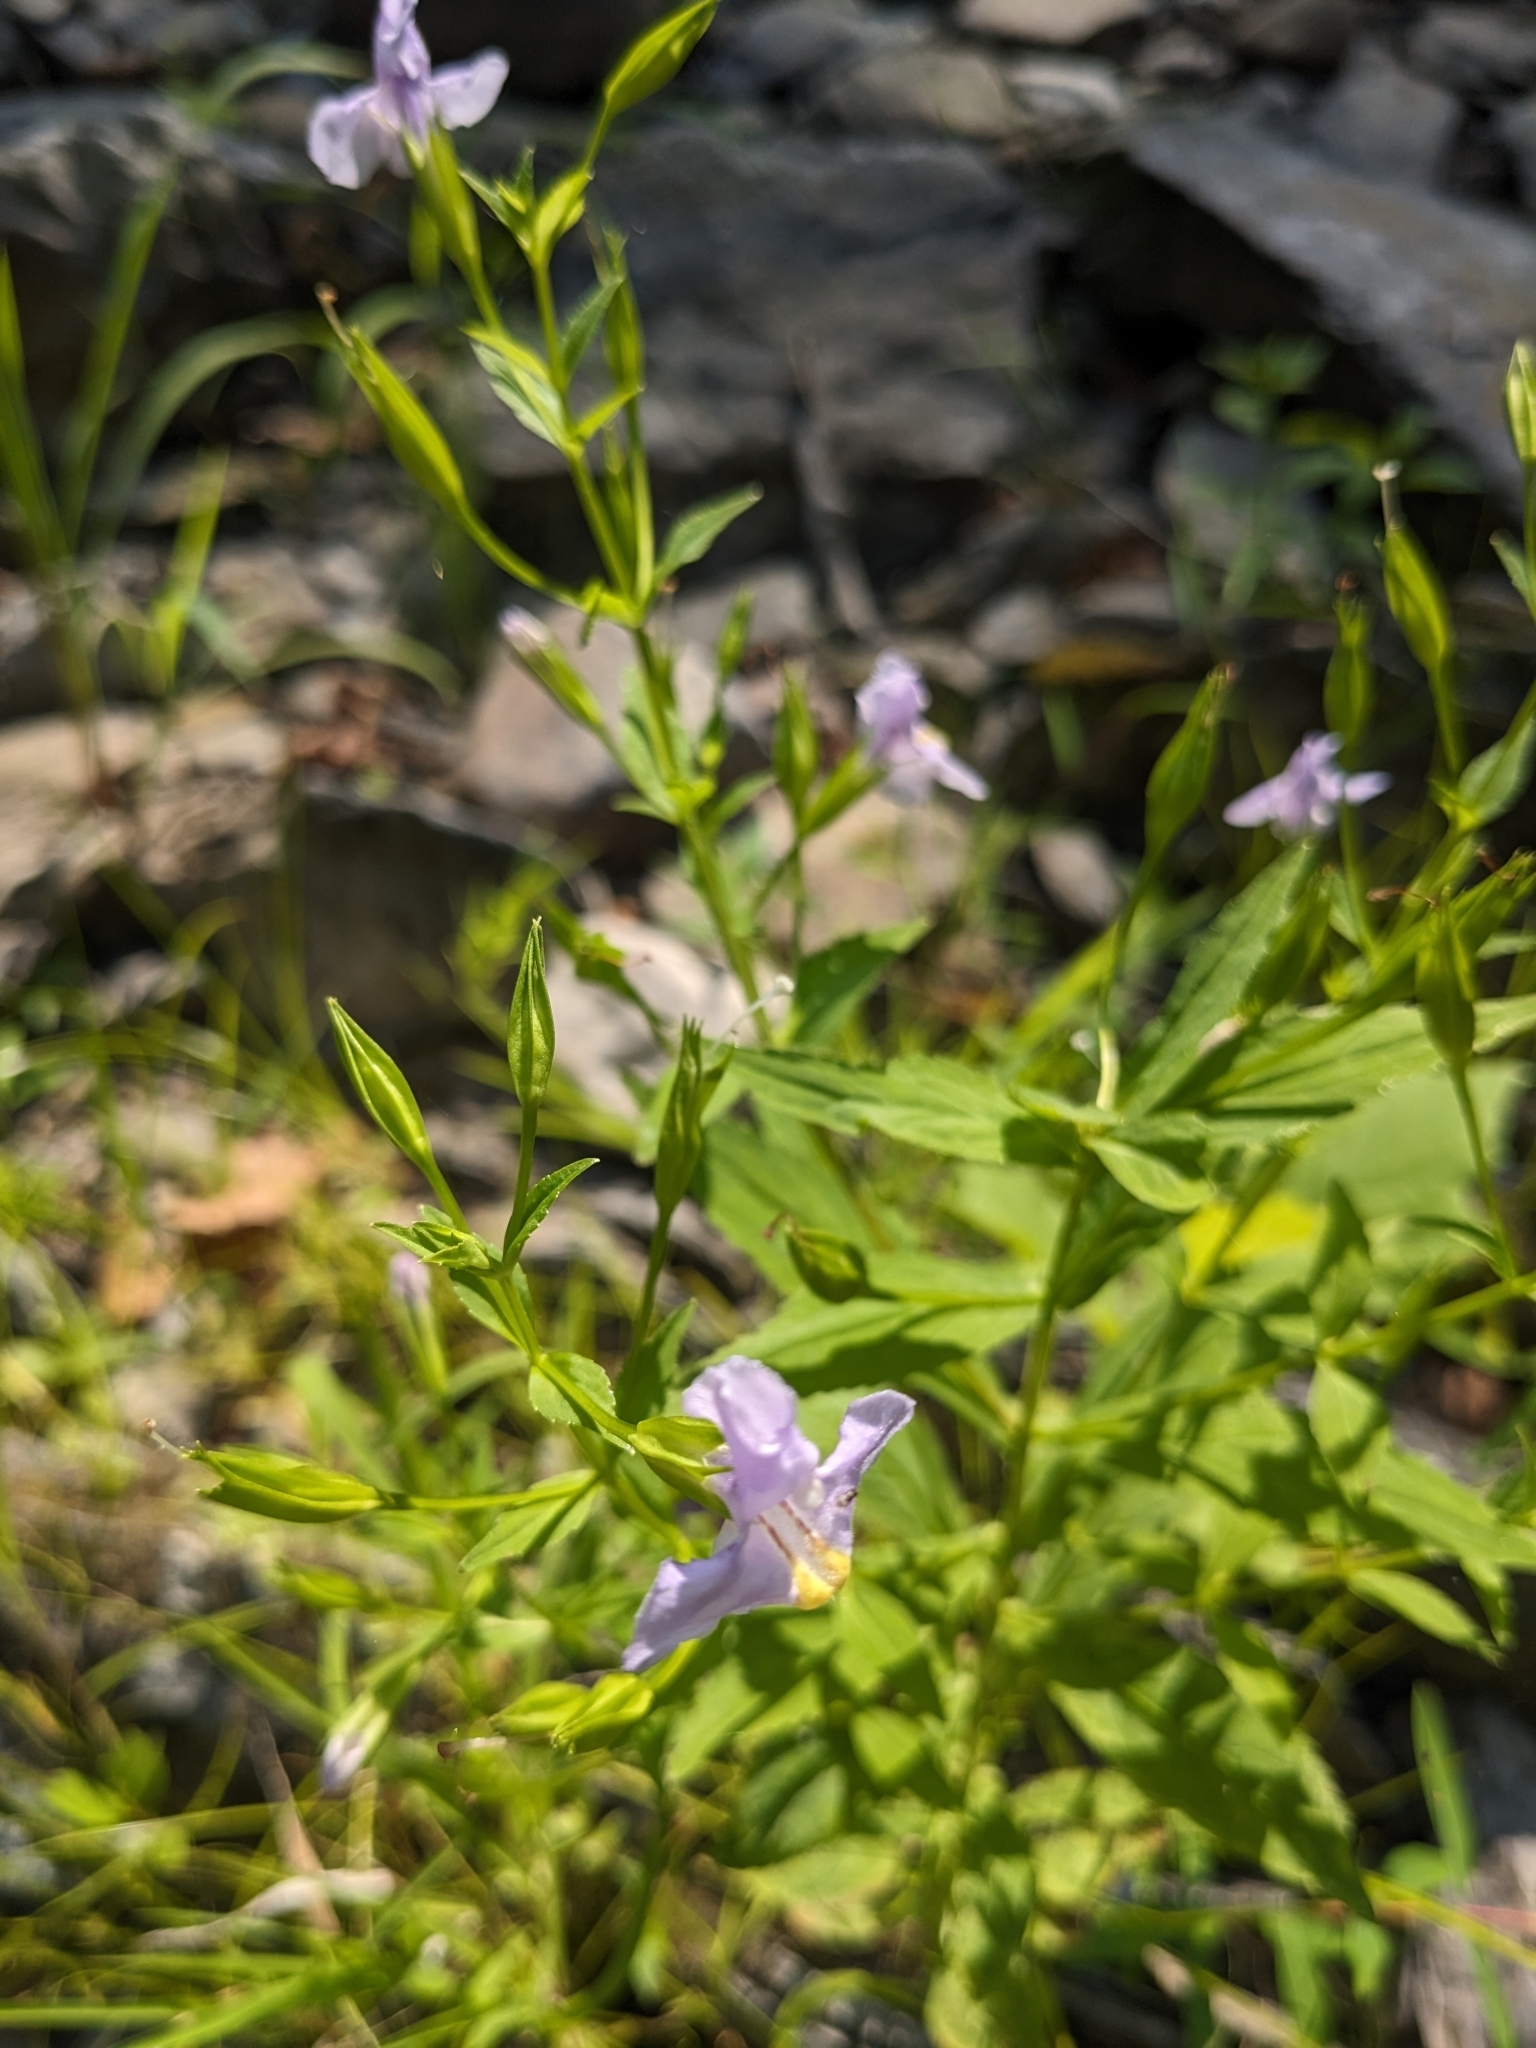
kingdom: Plantae
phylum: Tracheophyta
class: Magnoliopsida
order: Lamiales
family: Phrymaceae
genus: Mimulus
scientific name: Mimulus ringens
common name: Allegheny monkeyflower
